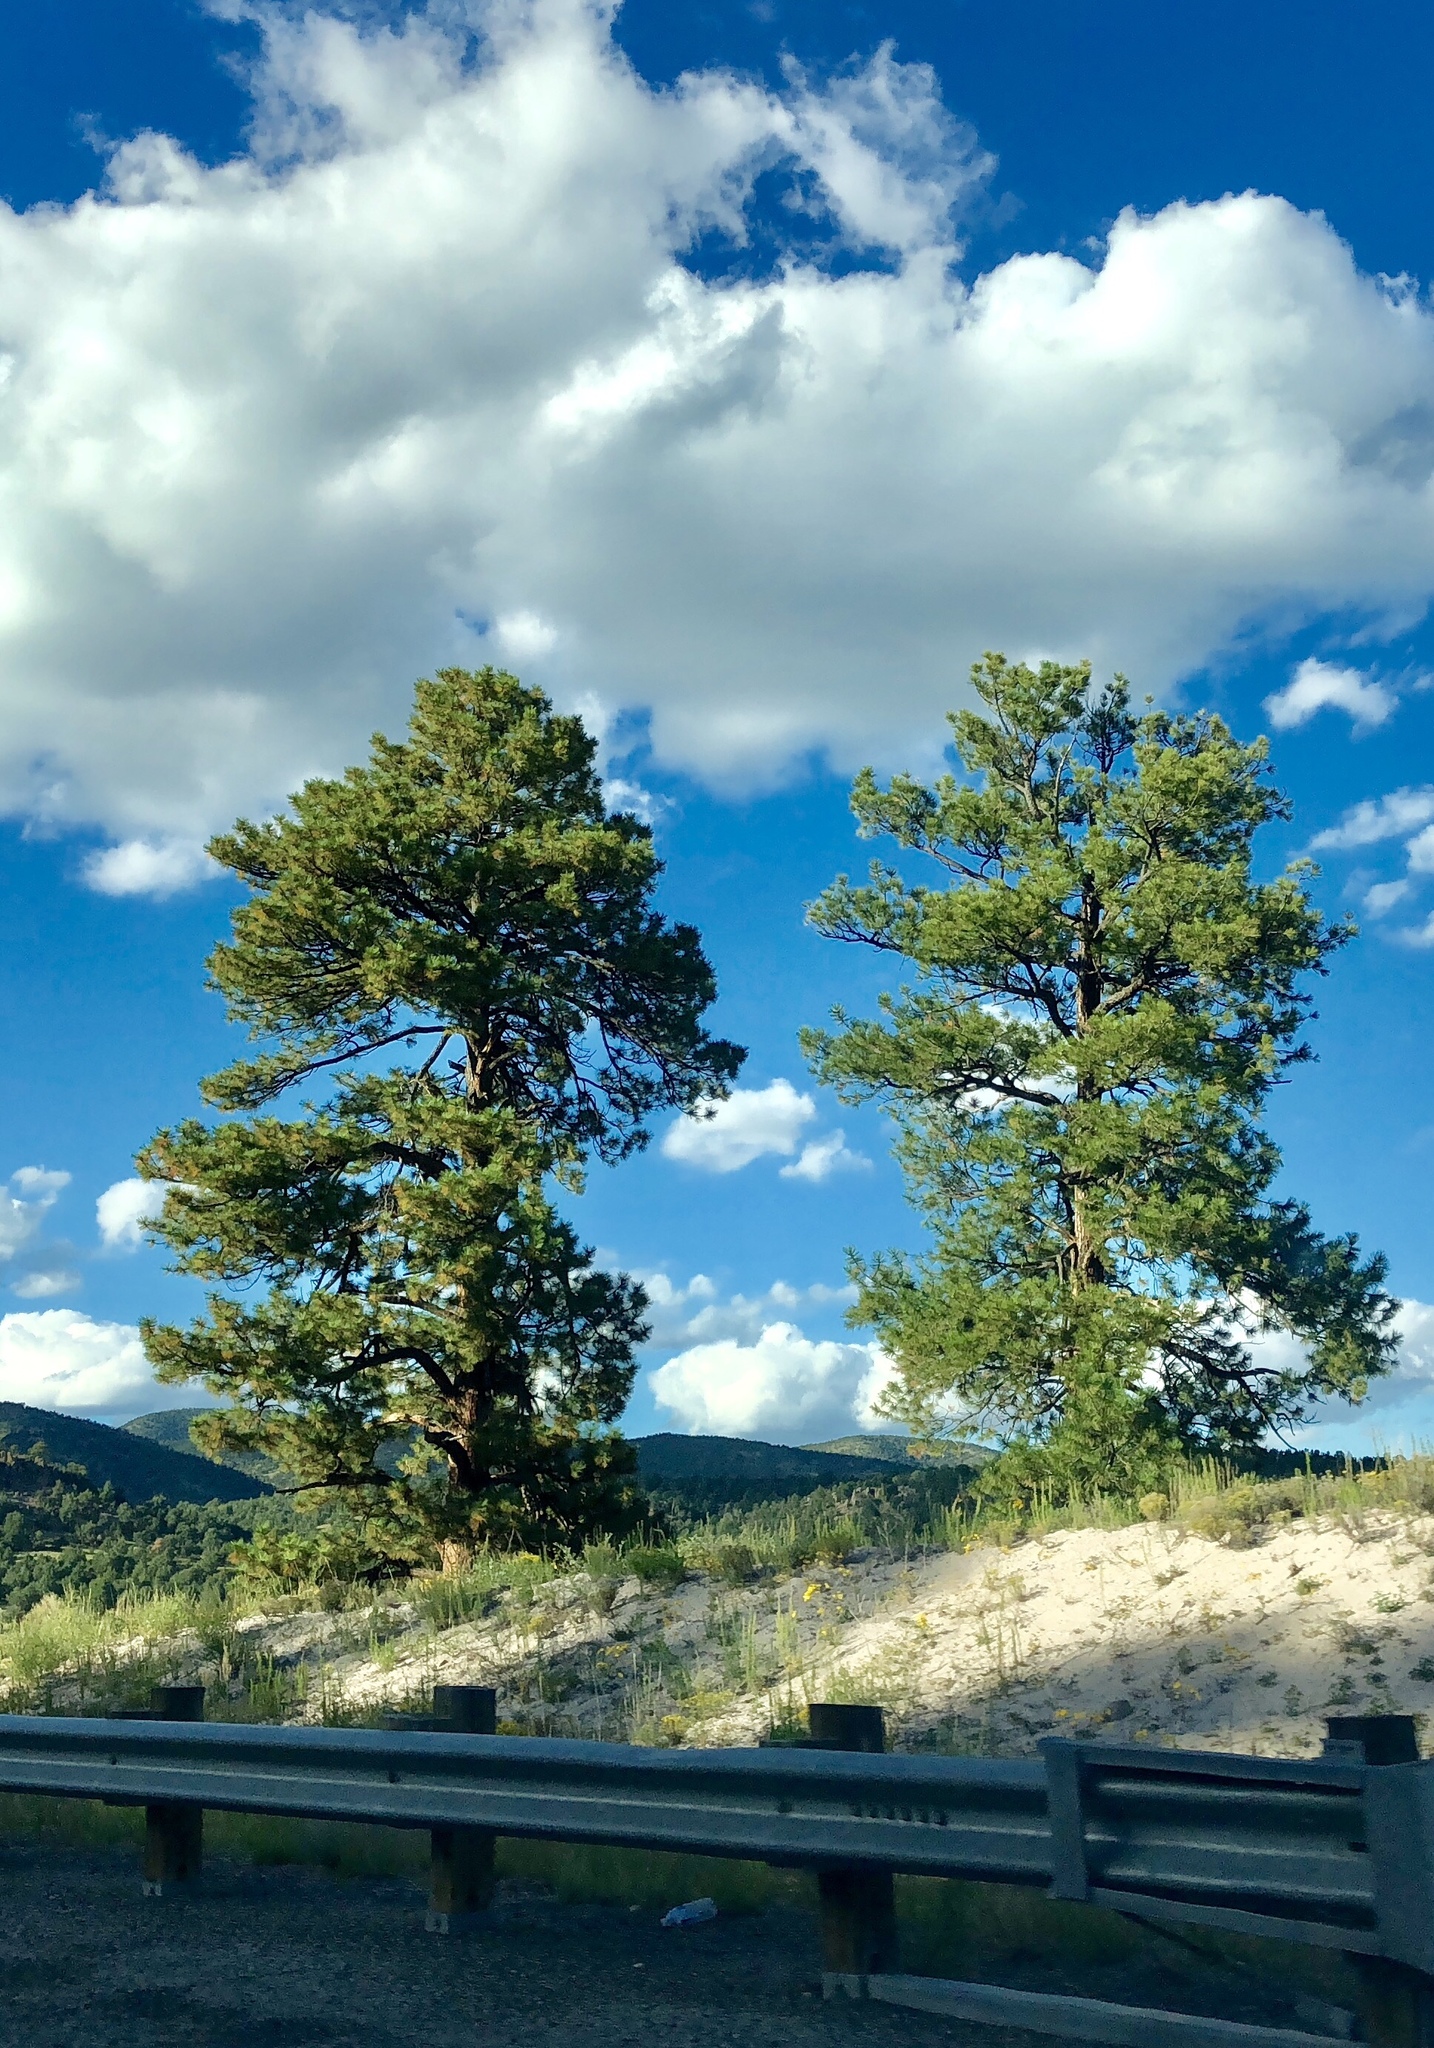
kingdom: Plantae
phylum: Tracheophyta
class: Pinopsida
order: Pinales
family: Pinaceae
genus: Pinus
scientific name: Pinus ponderosa
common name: Western yellow-pine
